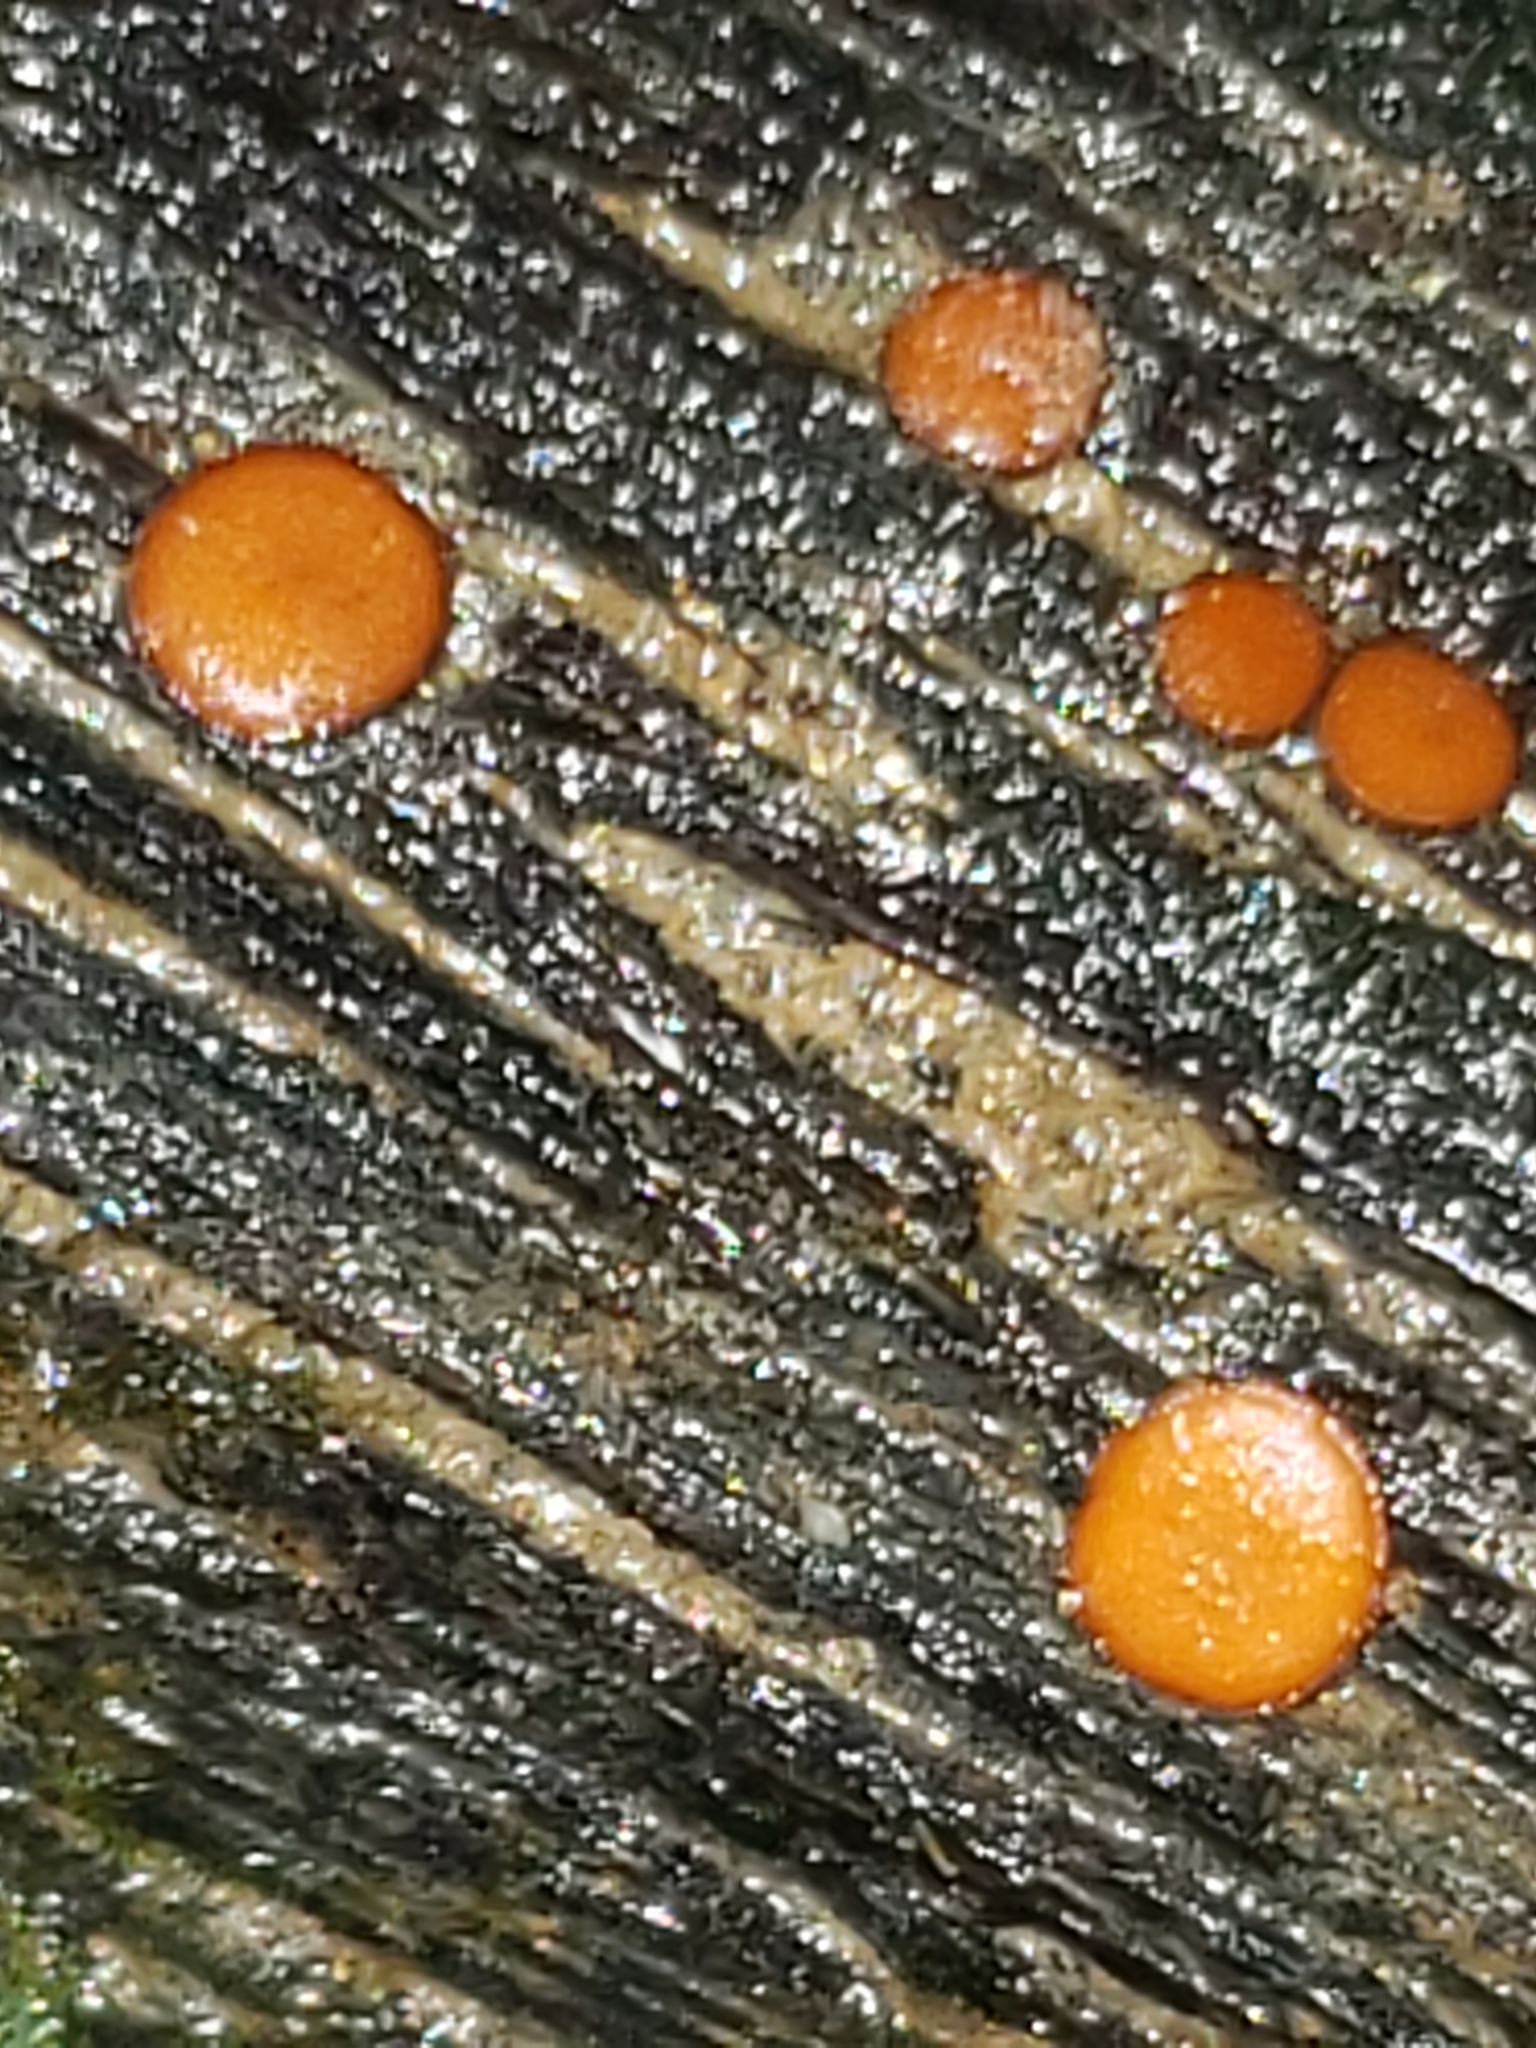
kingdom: Fungi
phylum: Ascomycota
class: Pezizomycetes
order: Pezizales
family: Pyronemataceae
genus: Scutellinia
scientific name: Scutellinia
